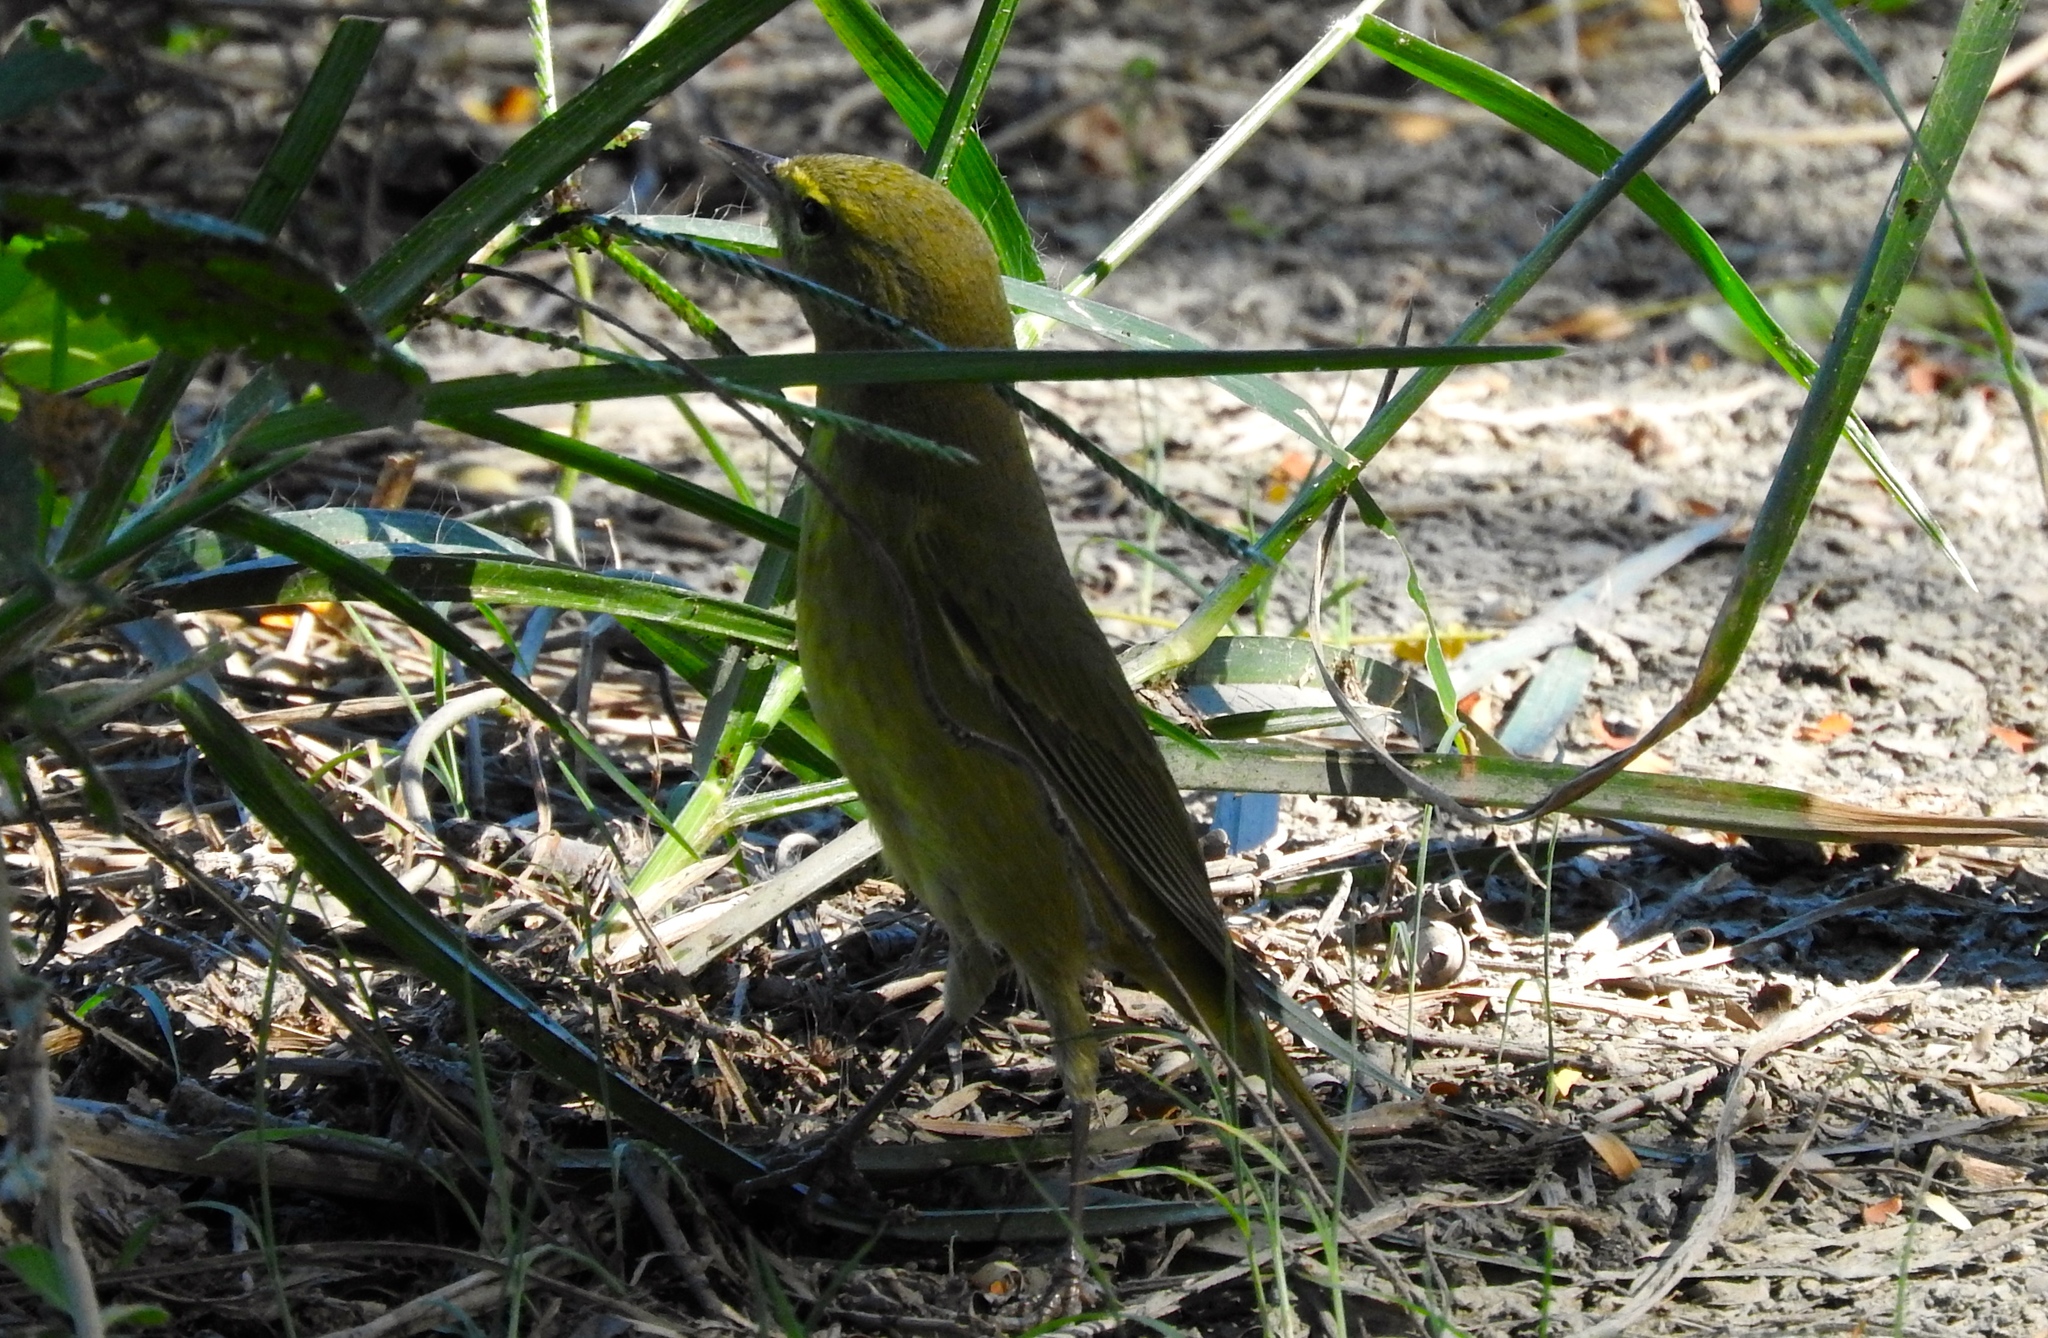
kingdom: Animalia
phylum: Chordata
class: Aves
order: Passeriformes
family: Parulidae
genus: Leiothlypis
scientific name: Leiothlypis celata
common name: Orange-crowned warbler
